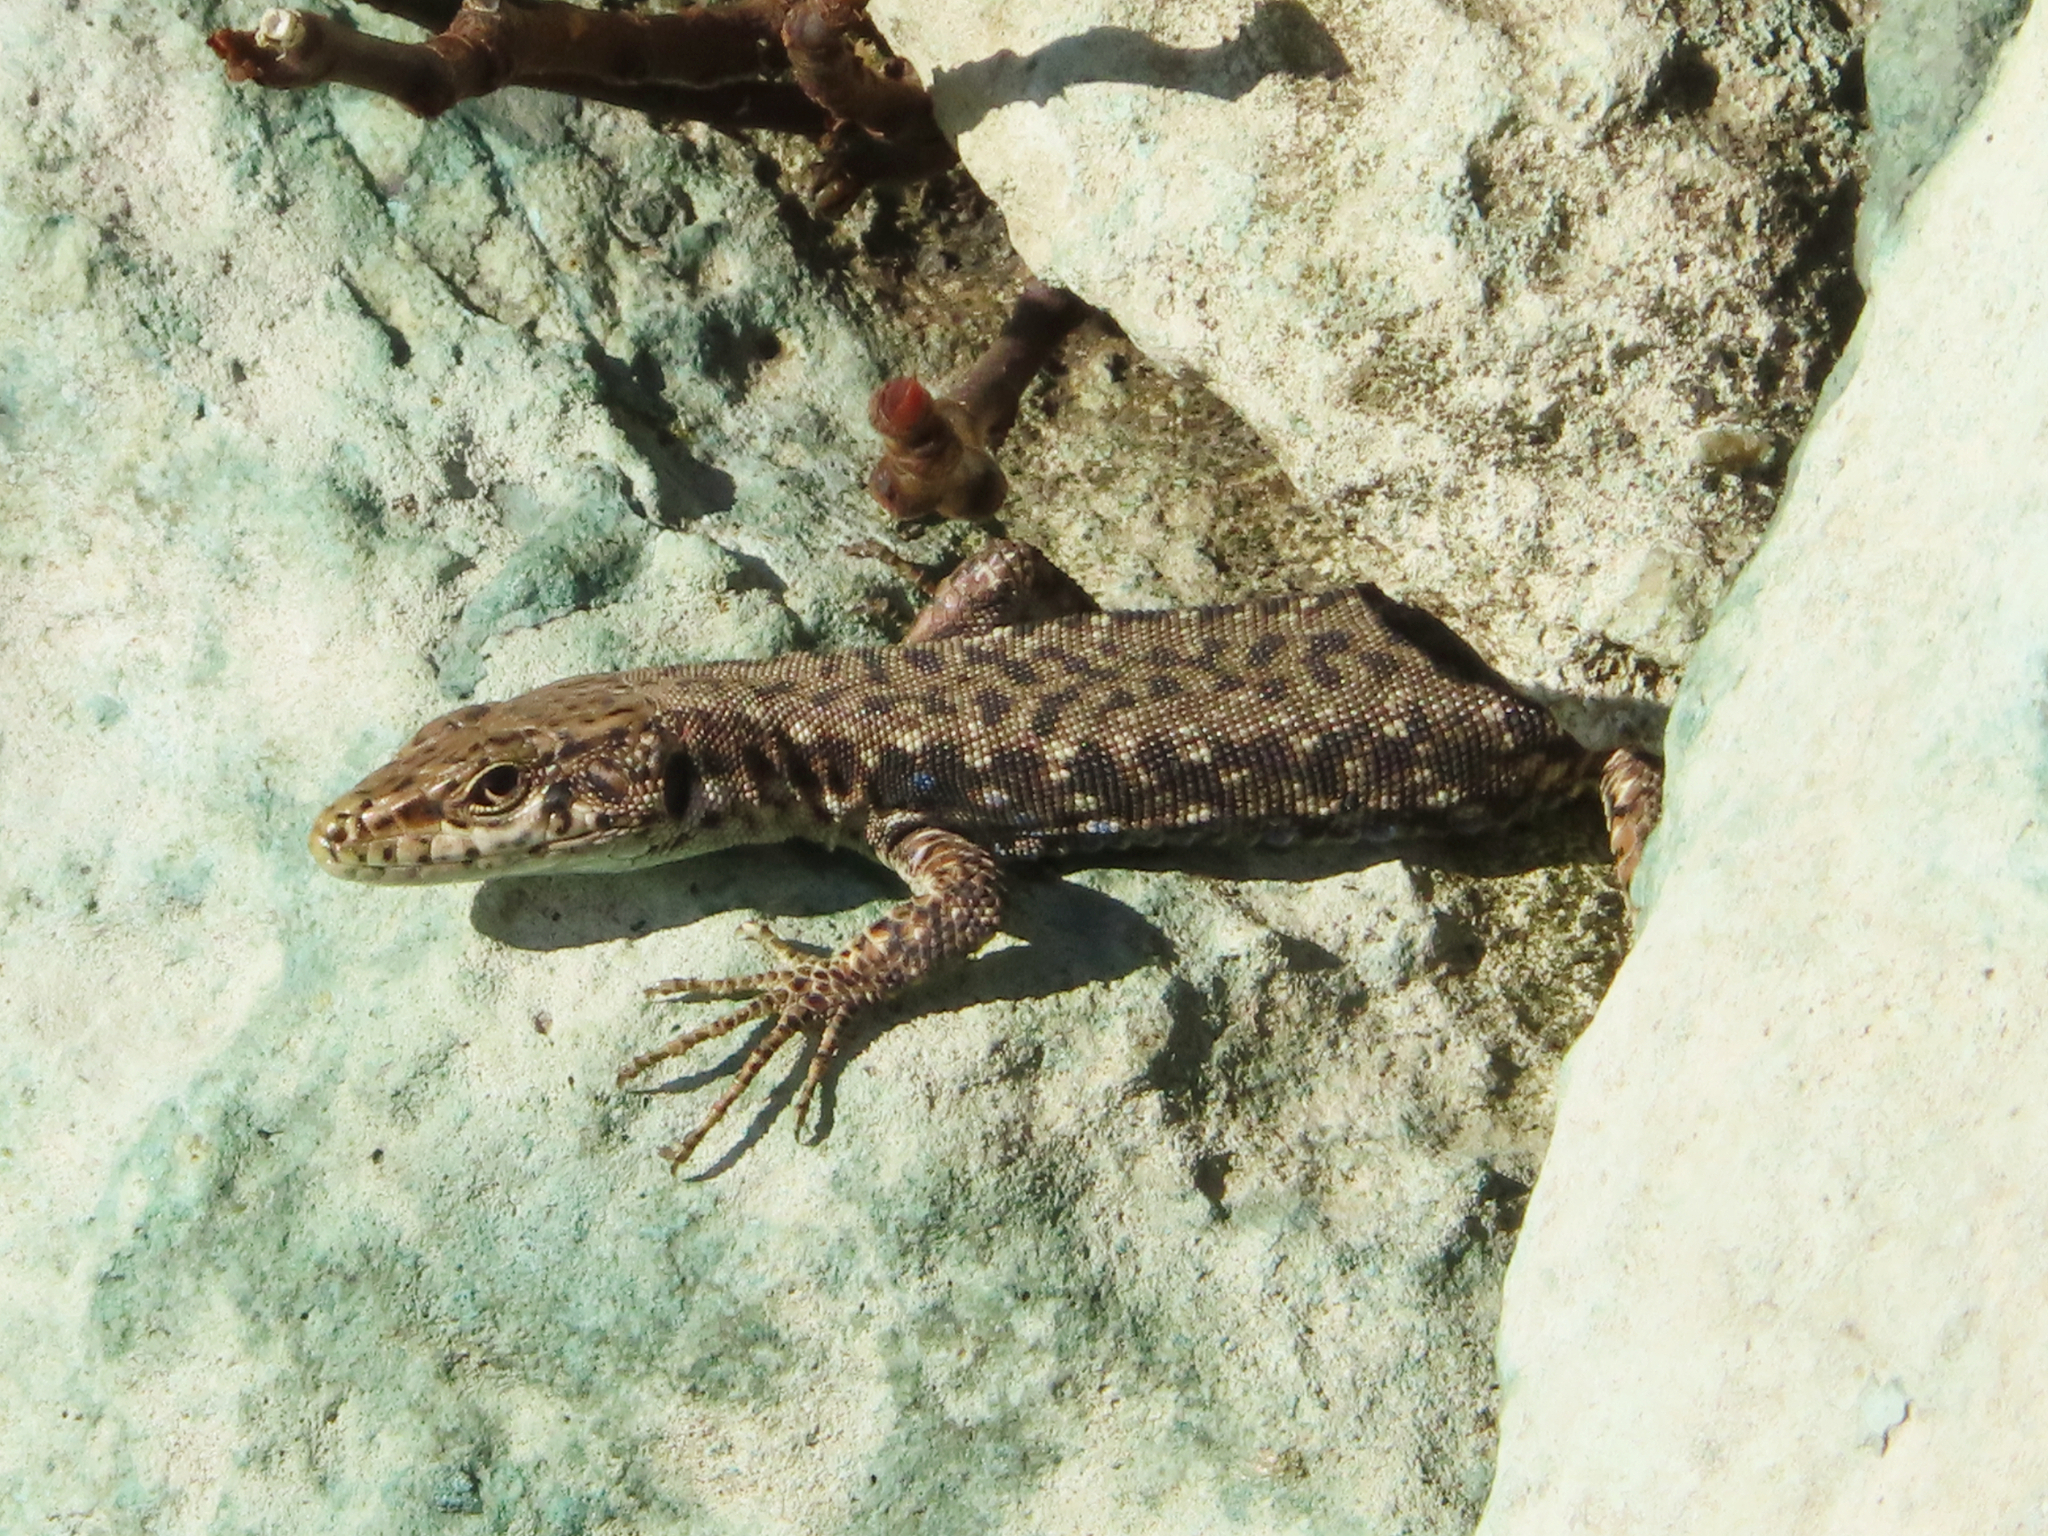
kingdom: Animalia
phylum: Chordata
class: Squamata
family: Lacertidae
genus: Darevskia
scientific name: Darevskia rudis
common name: Spiny-tailed lizard
